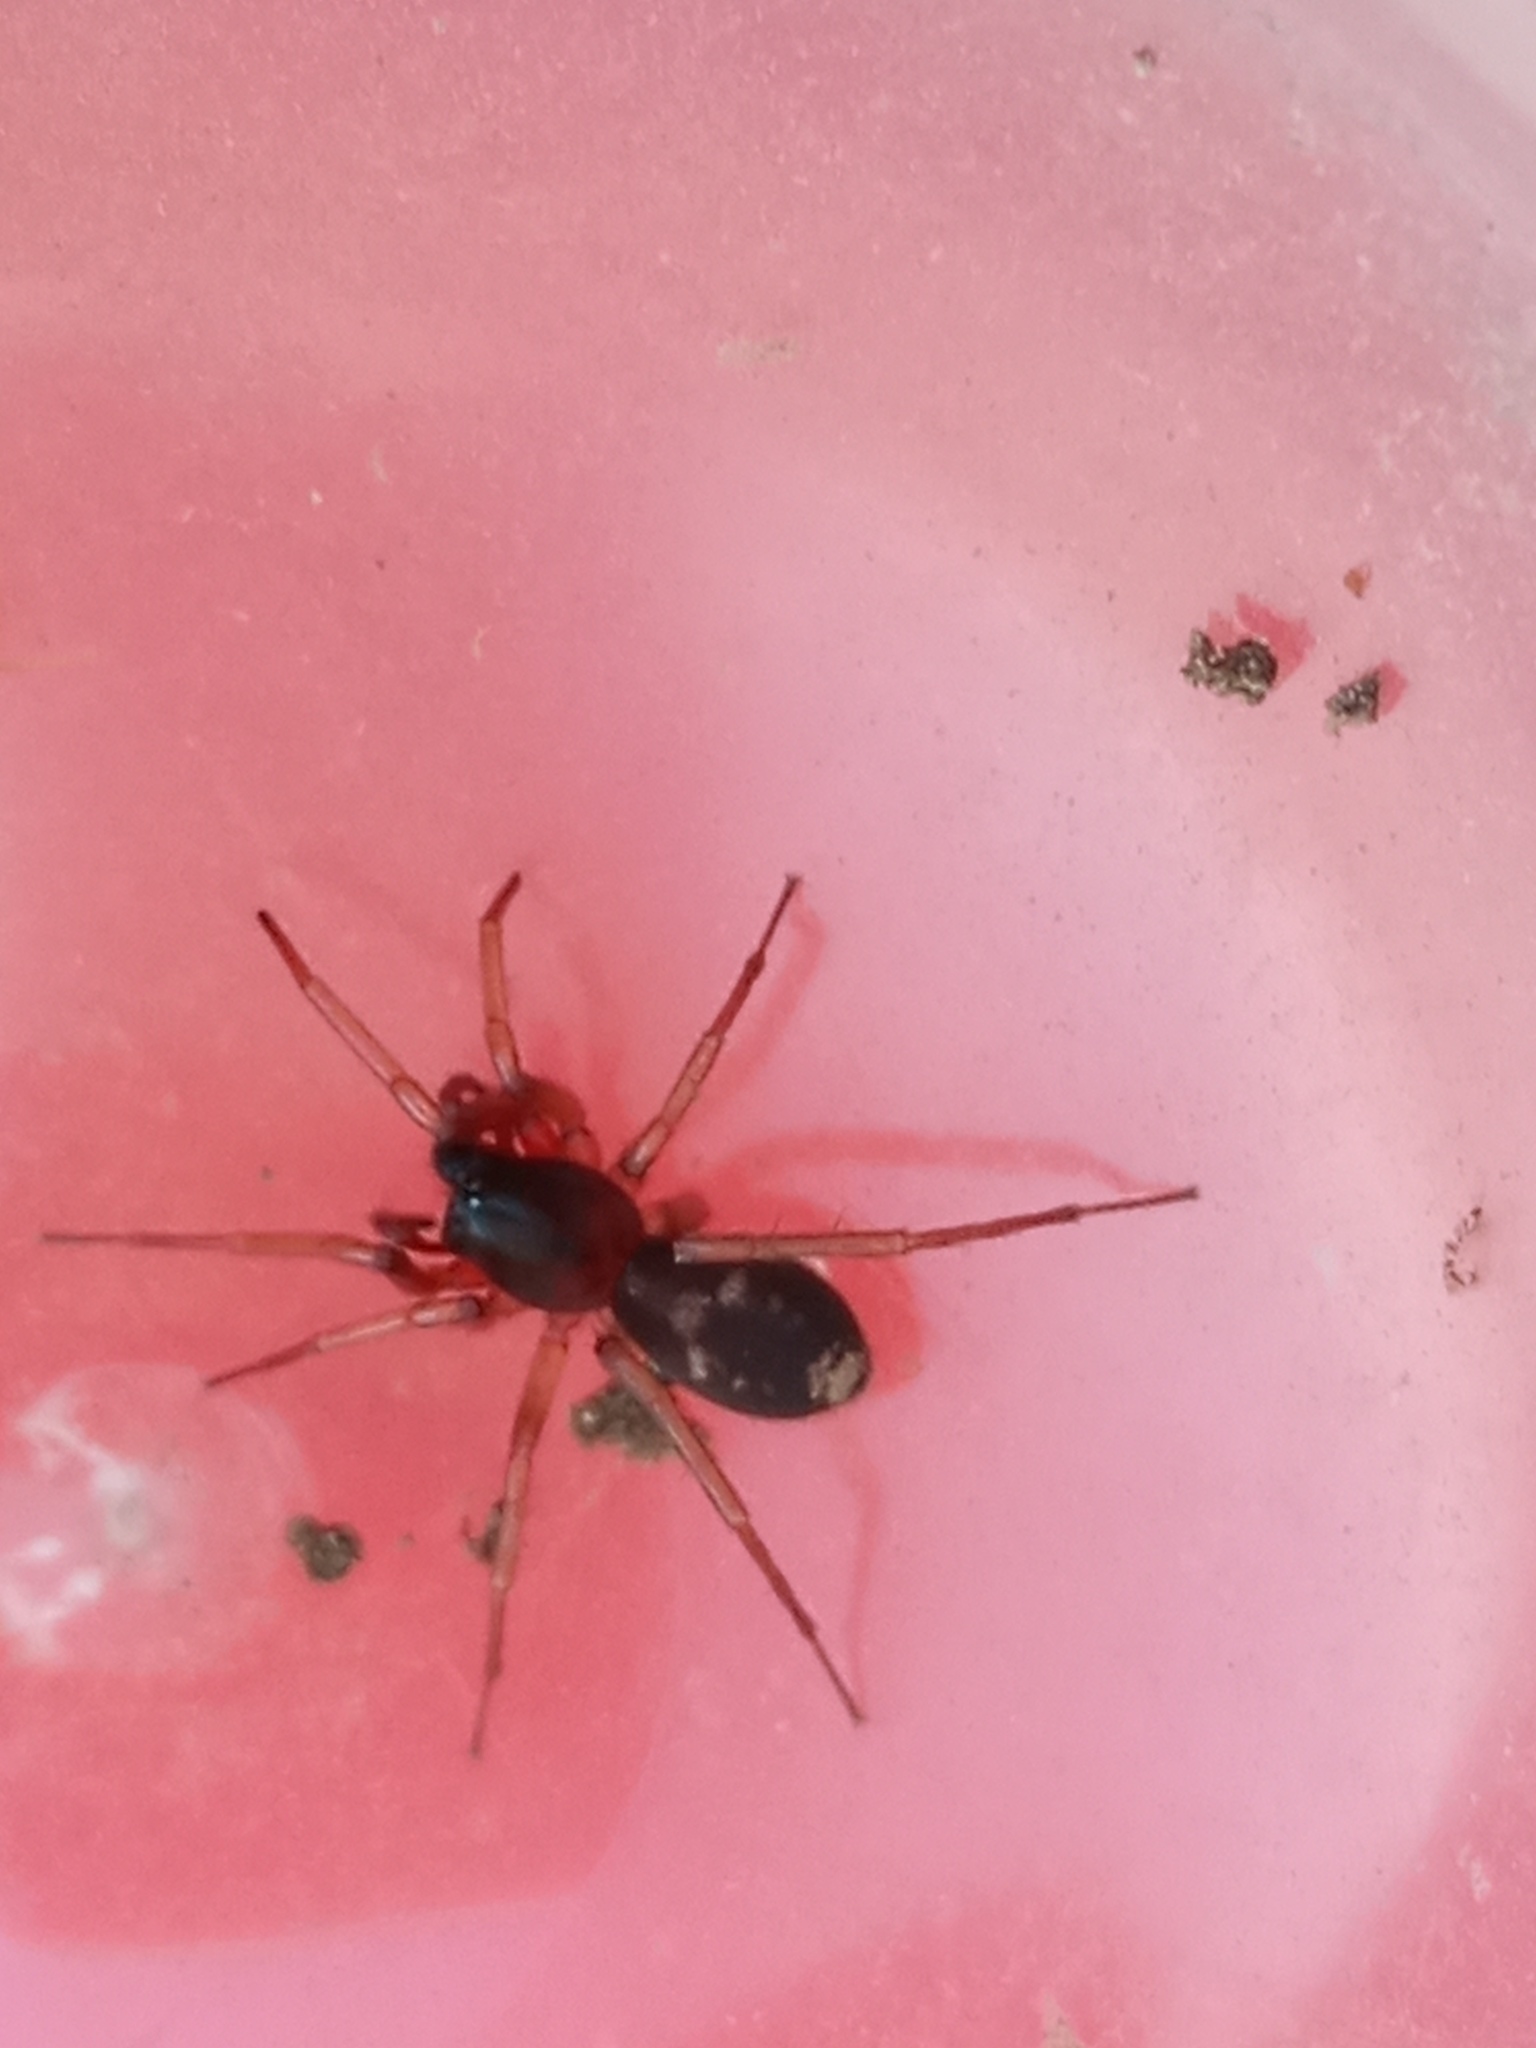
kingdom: Animalia
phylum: Arthropoda
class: Arachnida
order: Araneae
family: Corinnidae
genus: Falconina
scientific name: Falconina gracilis
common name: Antmimic spider
